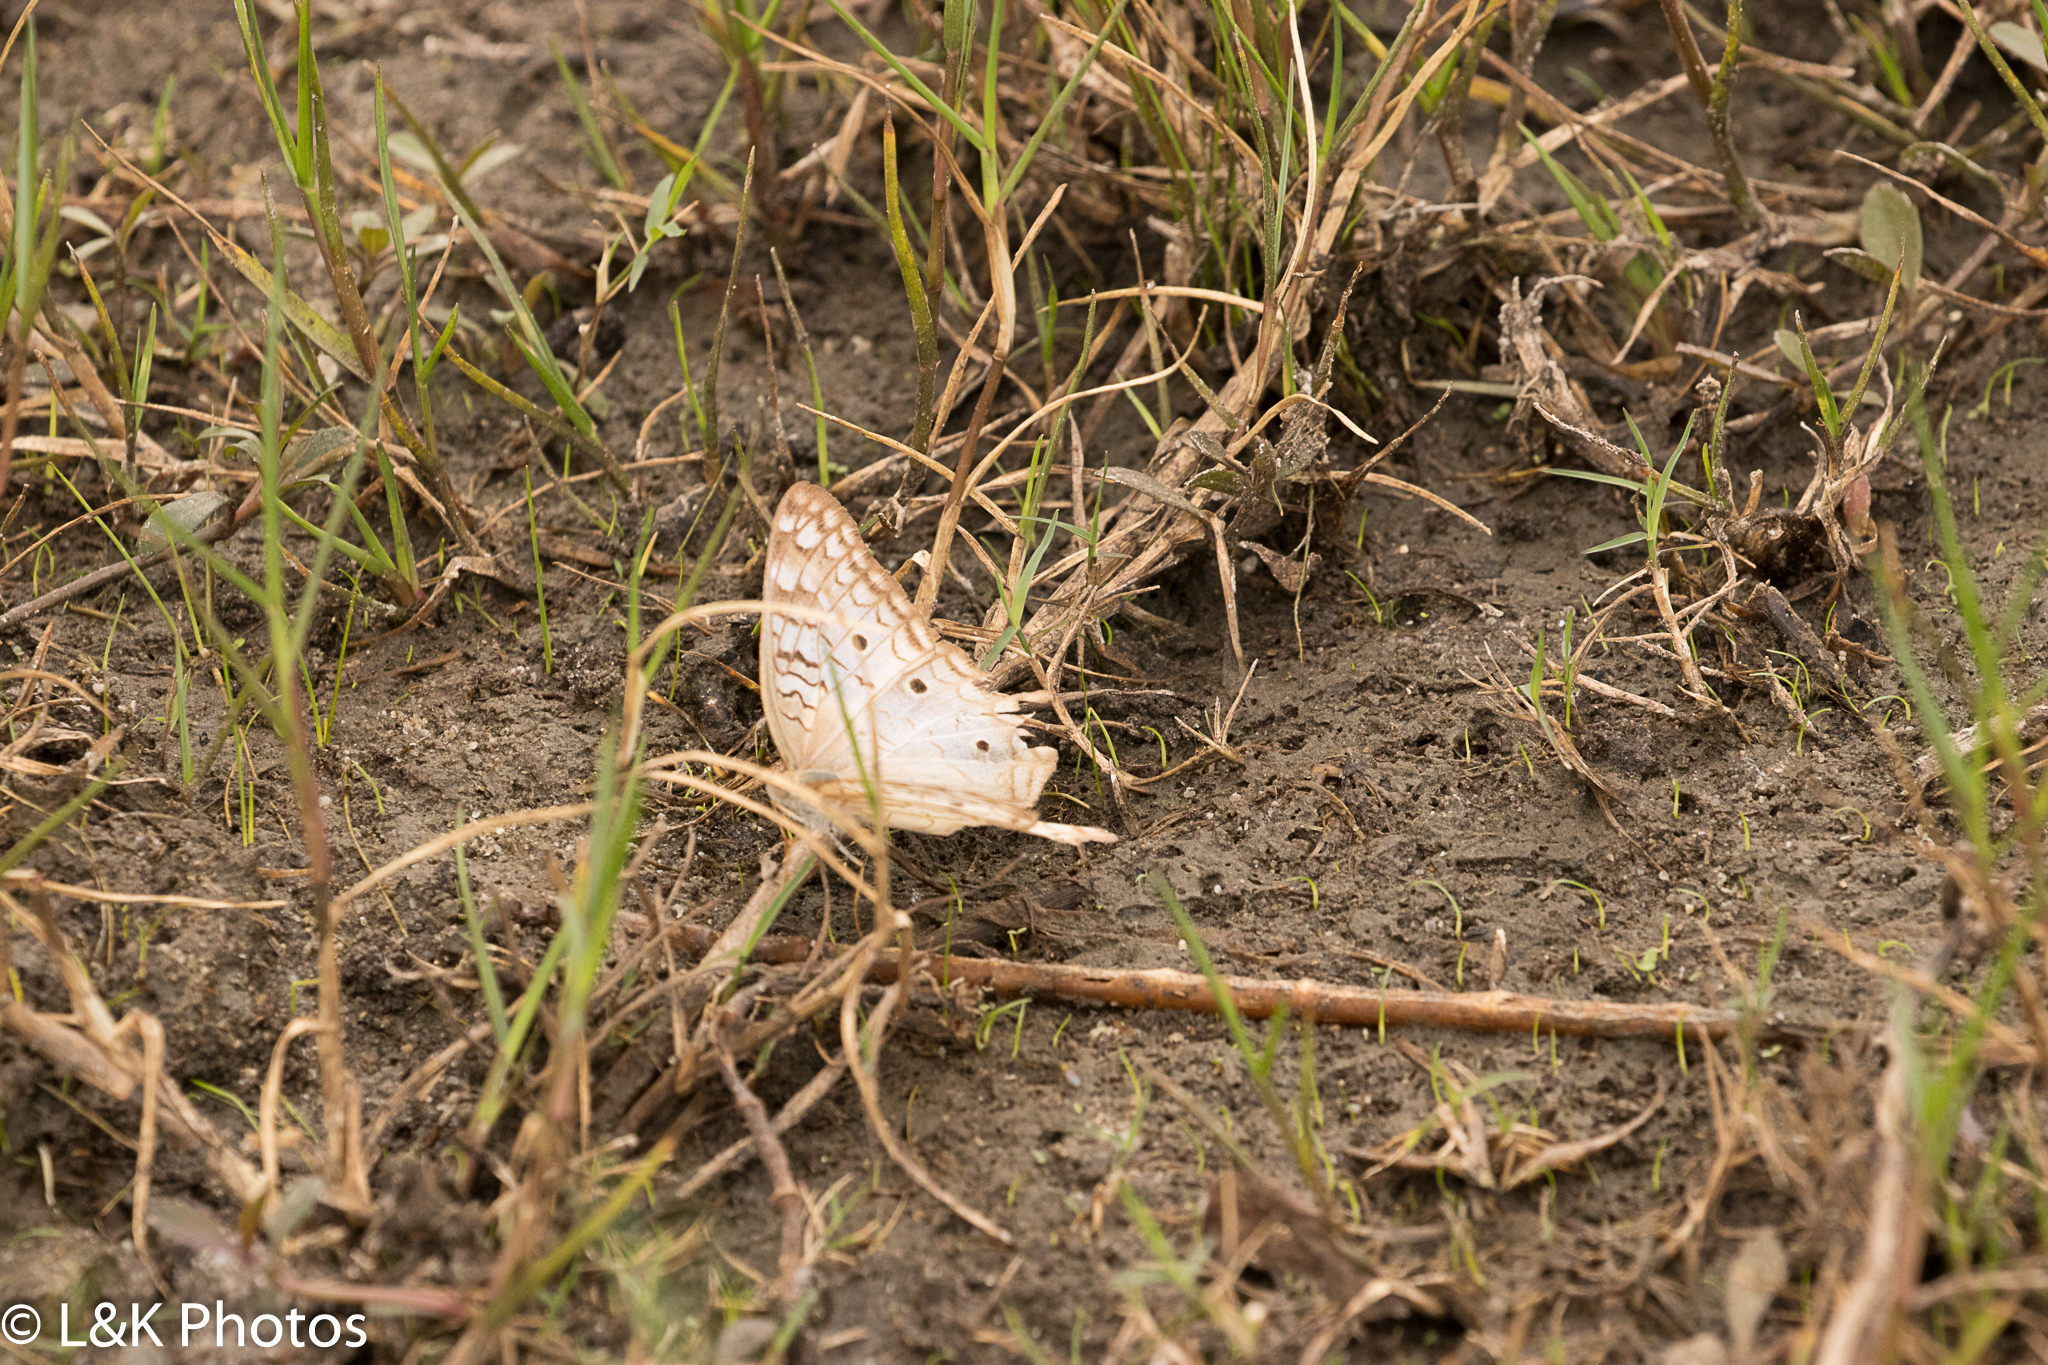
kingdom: Animalia
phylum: Arthropoda
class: Insecta
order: Lepidoptera
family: Nymphalidae
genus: Anartia
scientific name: Anartia jatrophae
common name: White peacock
